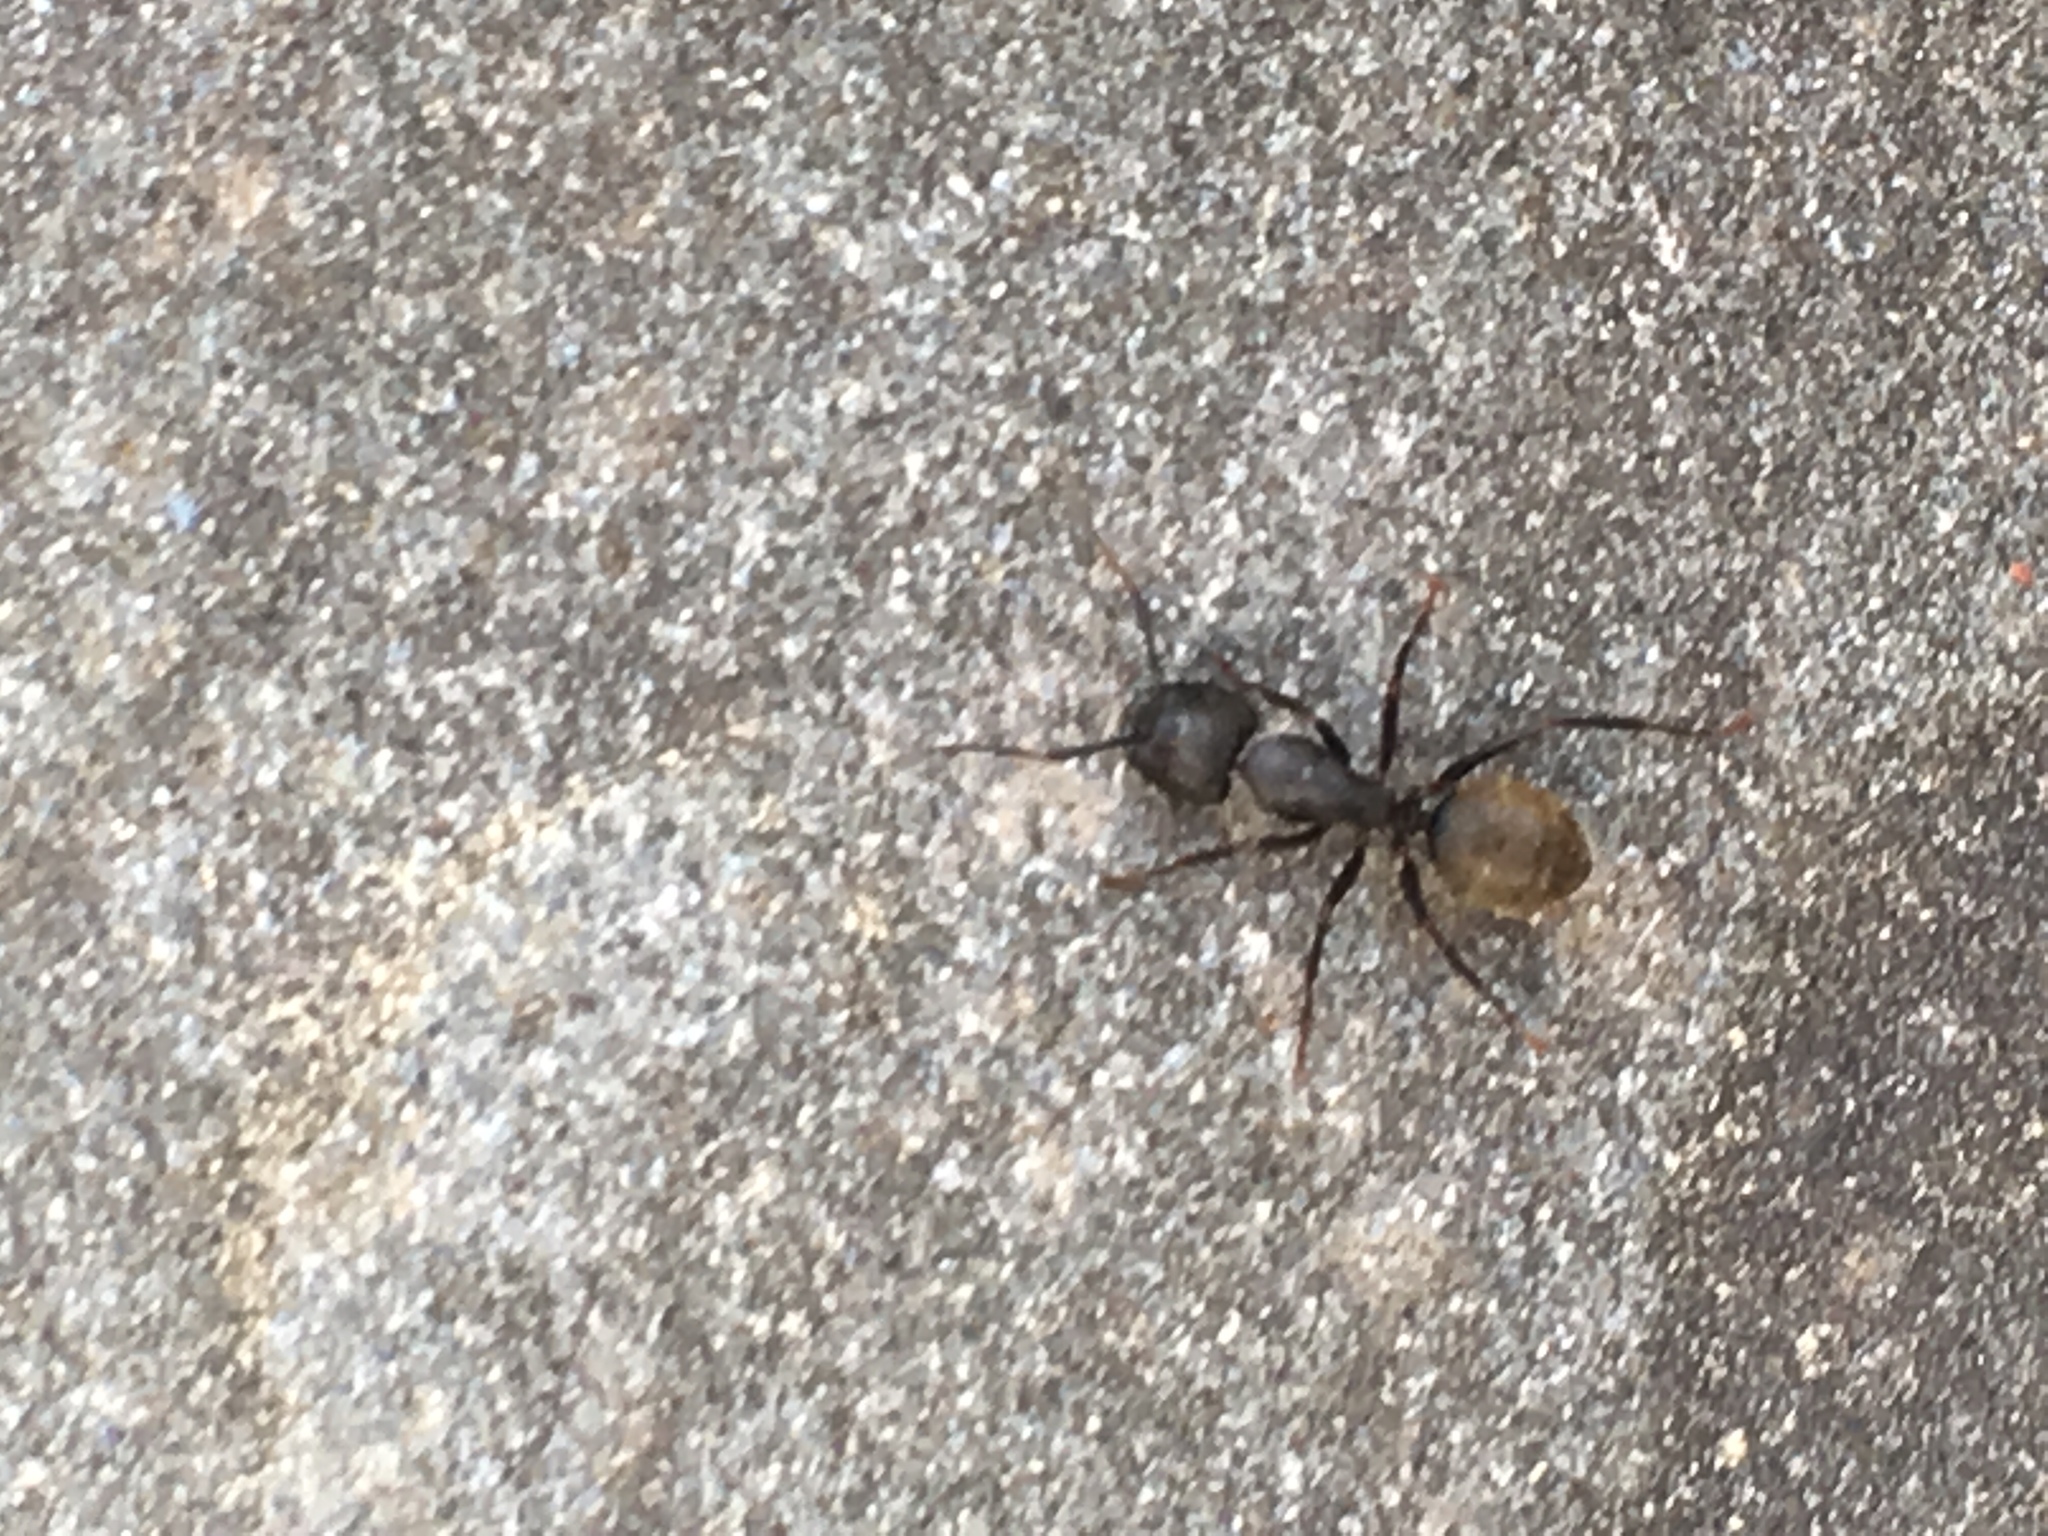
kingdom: Animalia
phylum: Arthropoda
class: Insecta
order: Hymenoptera
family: Formicidae
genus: Camponotus
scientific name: Camponotus pennsylvanicus
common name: Black carpenter ant
